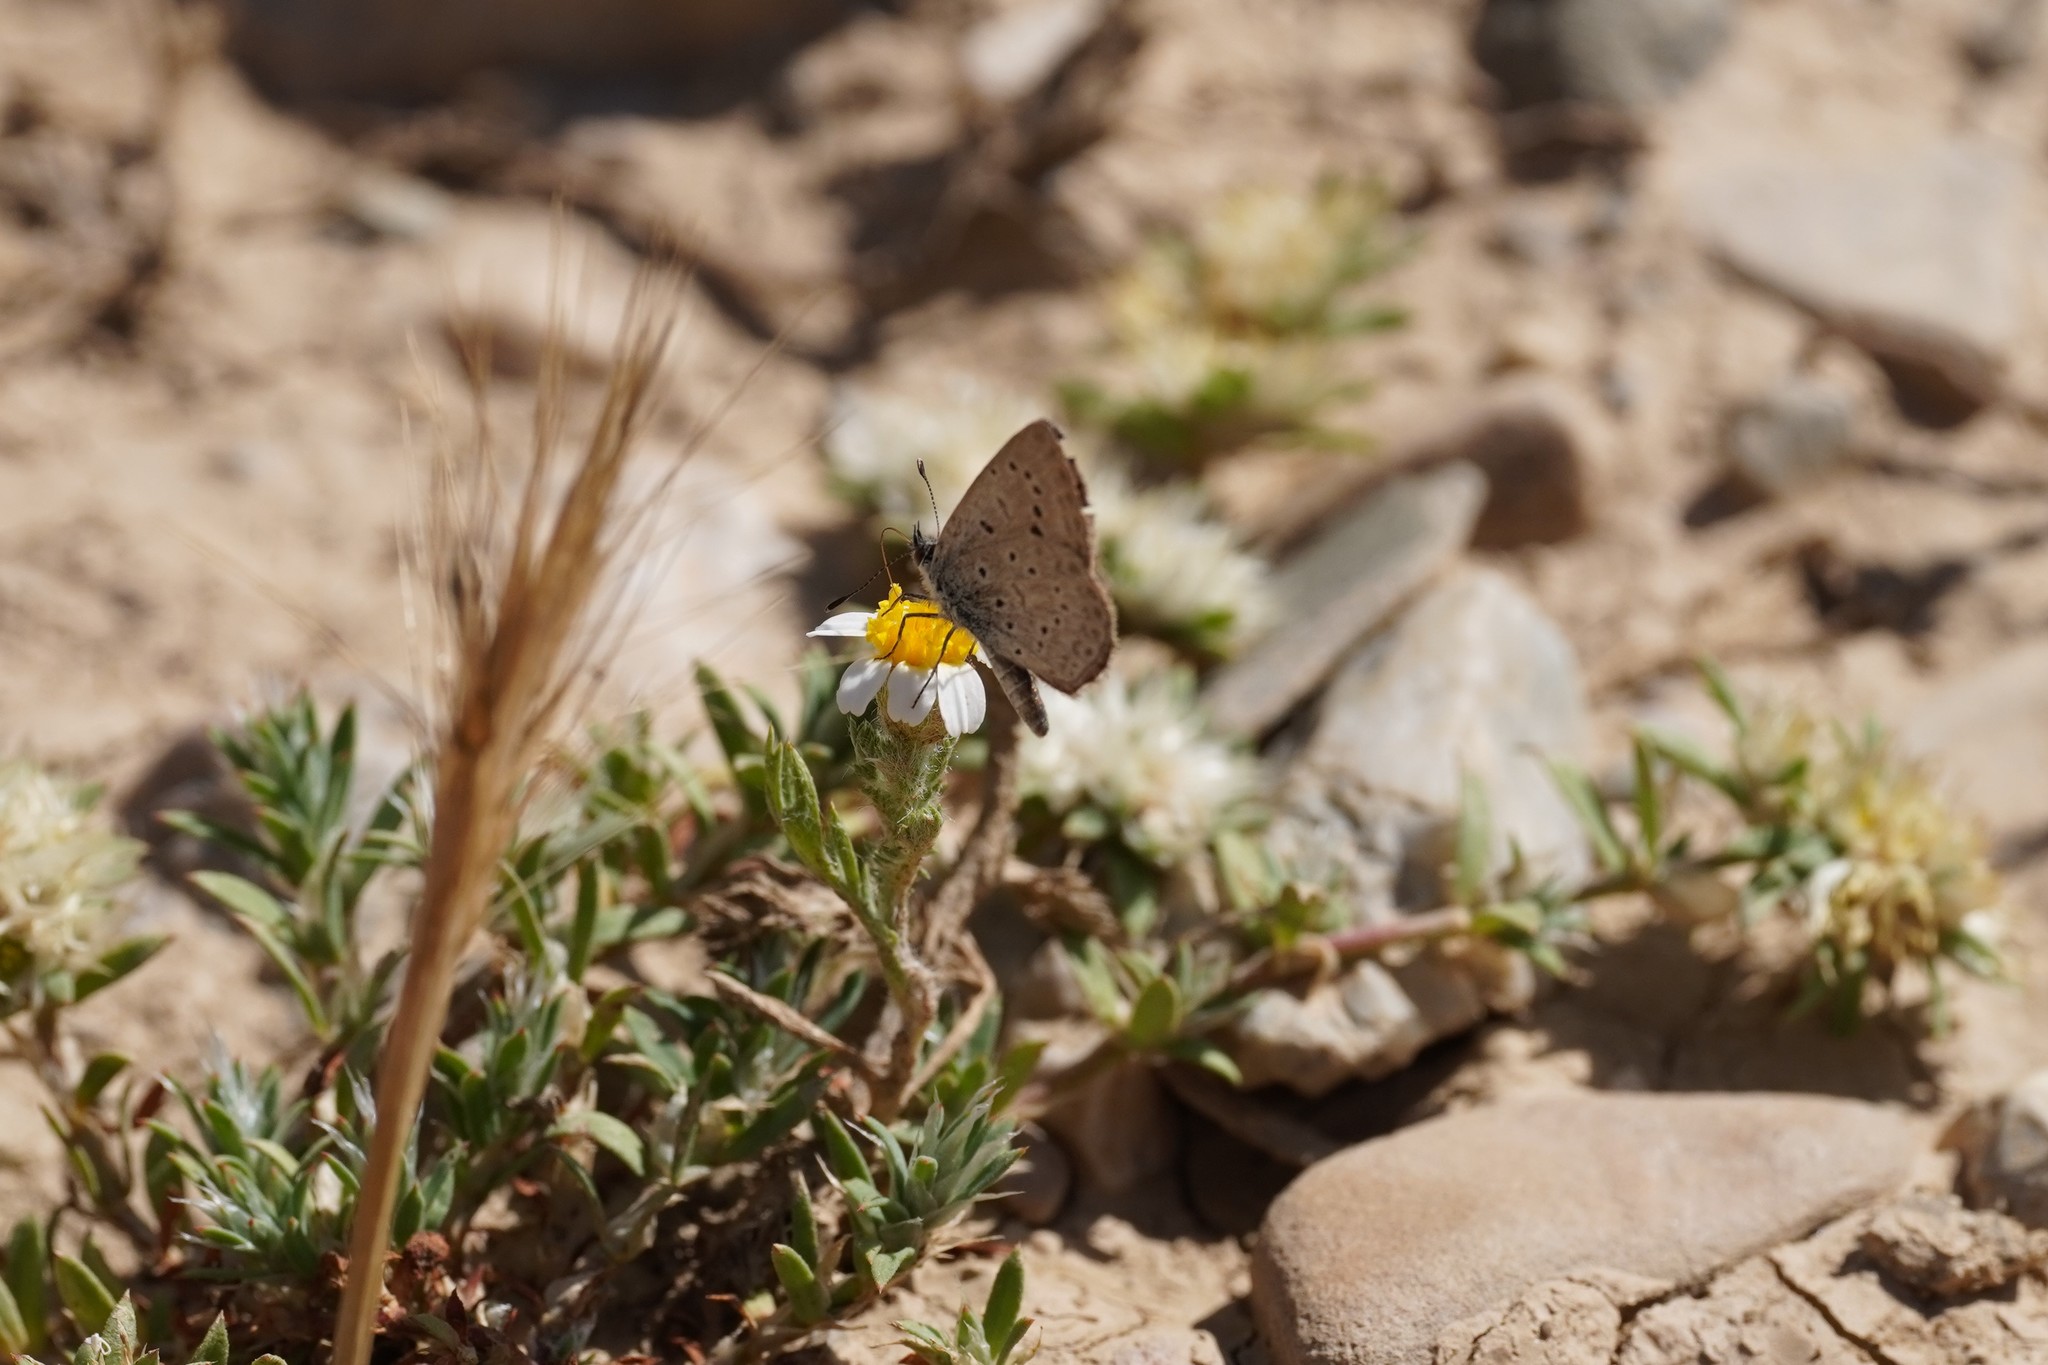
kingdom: Animalia
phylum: Arthropoda
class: Insecta
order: Lepidoptera
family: Lycaenidae
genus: Zizeeria
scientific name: Zizeeria knysna
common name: African grass blue
